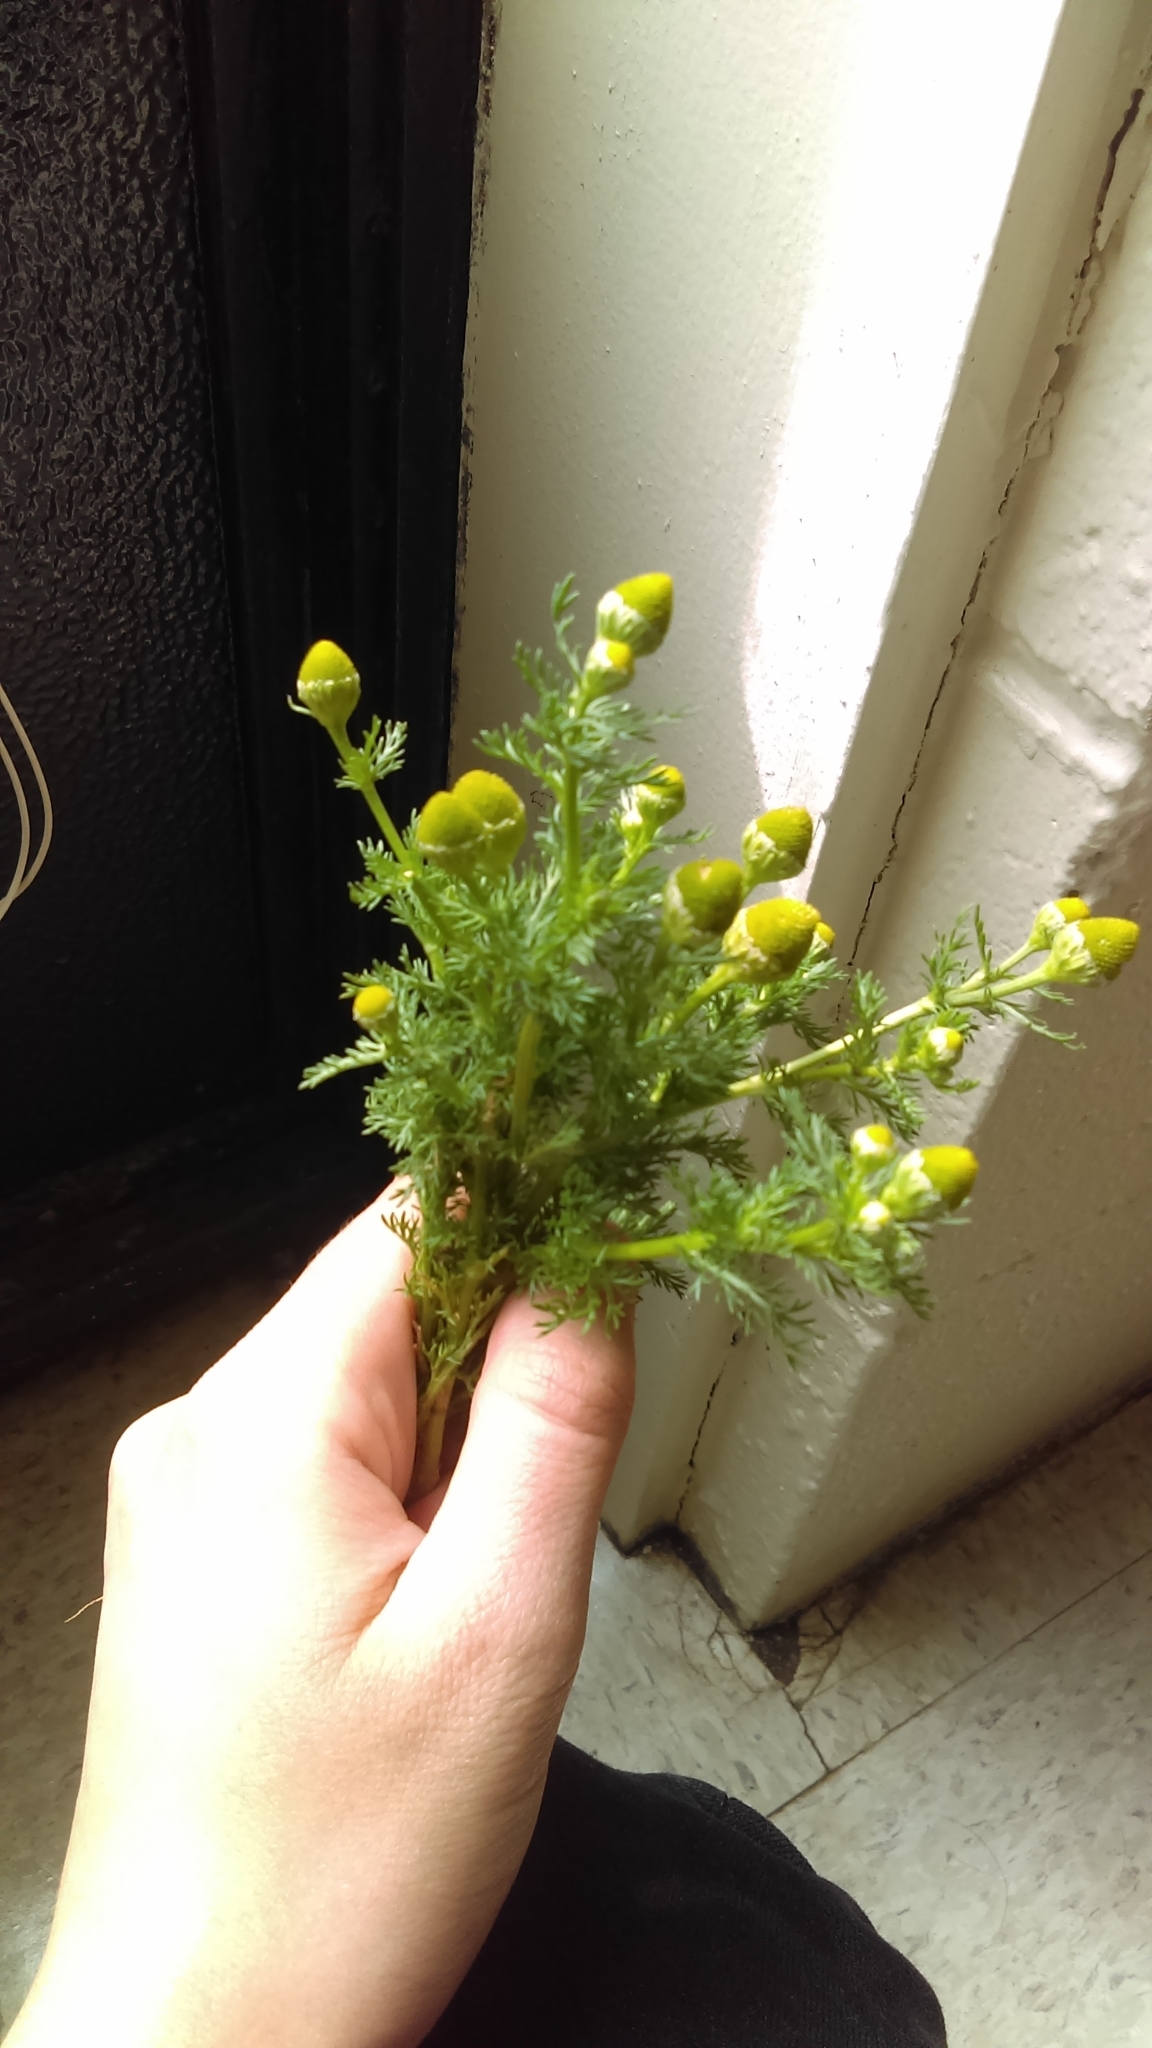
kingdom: Plantae
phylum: Tracheophyta
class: Magnoliopsida
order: Asterales
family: Asteraceae
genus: Matricaria
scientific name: Matricaria discoidea
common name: Disc mayweed
